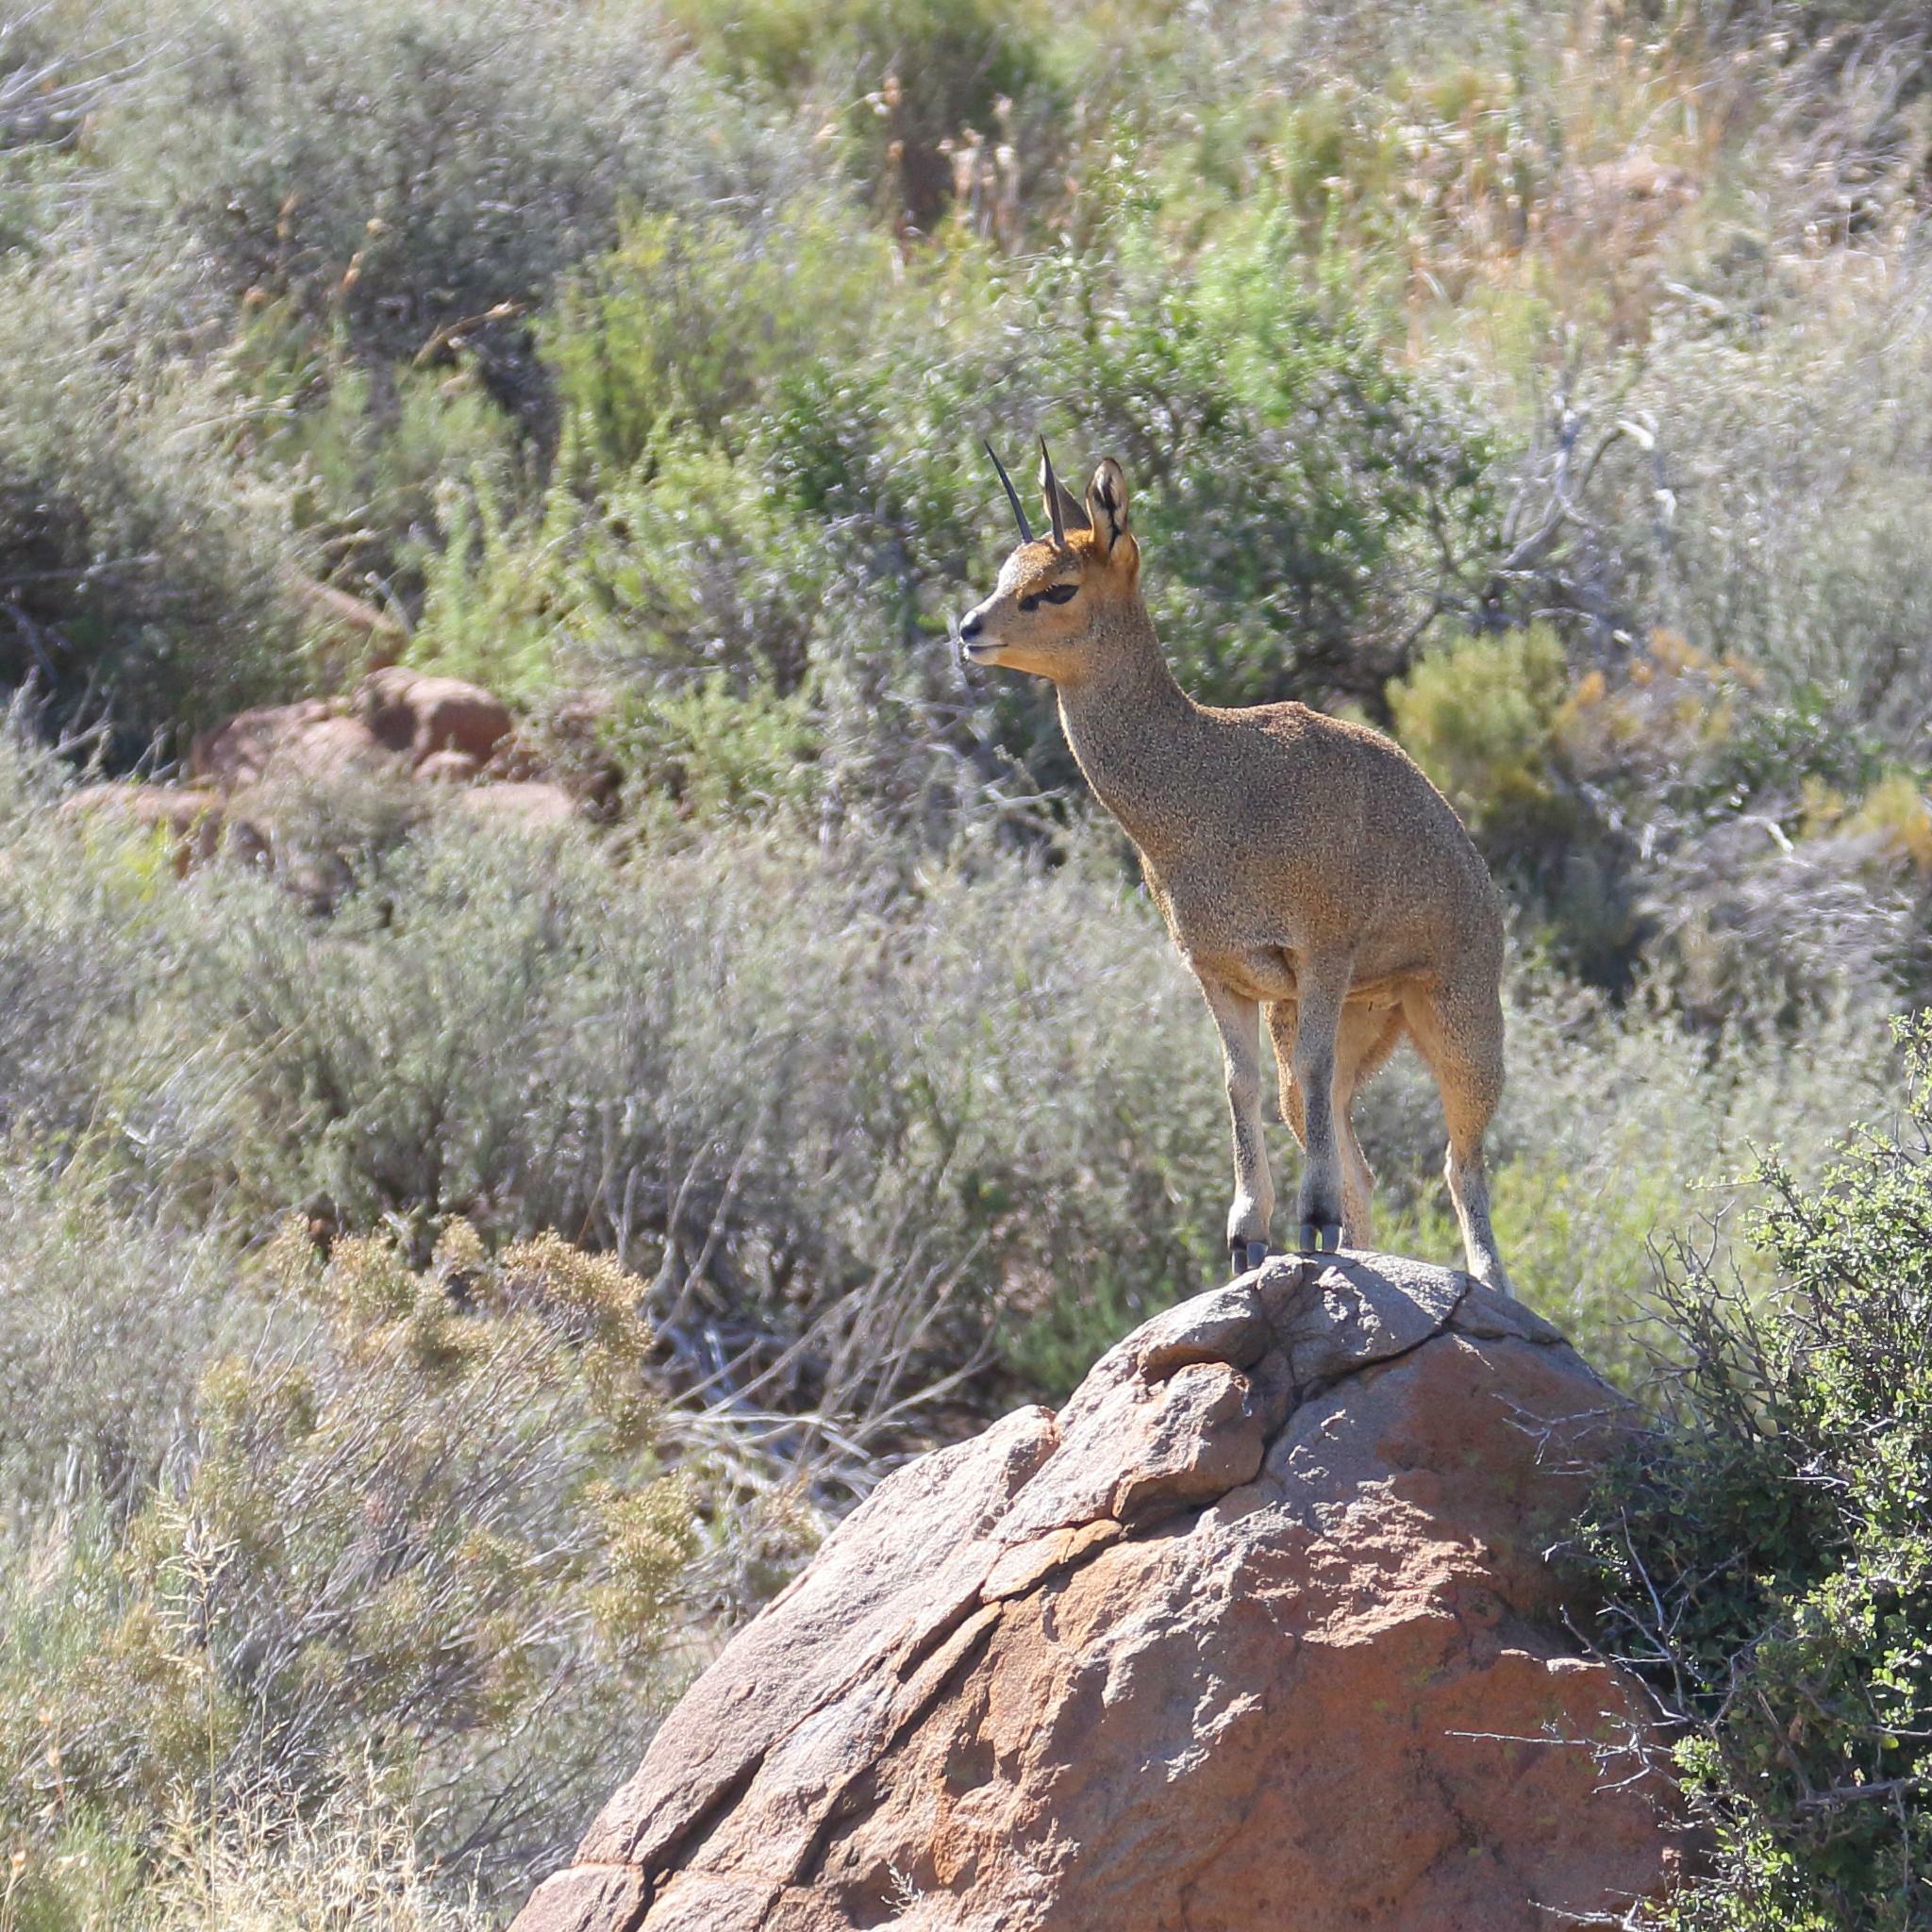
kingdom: Animalia
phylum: Chordata
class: Mammalia
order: Artiodactyla
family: Bovidae
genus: Oreotragus
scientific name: Oreotragus oreotragus
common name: Klipspringer
